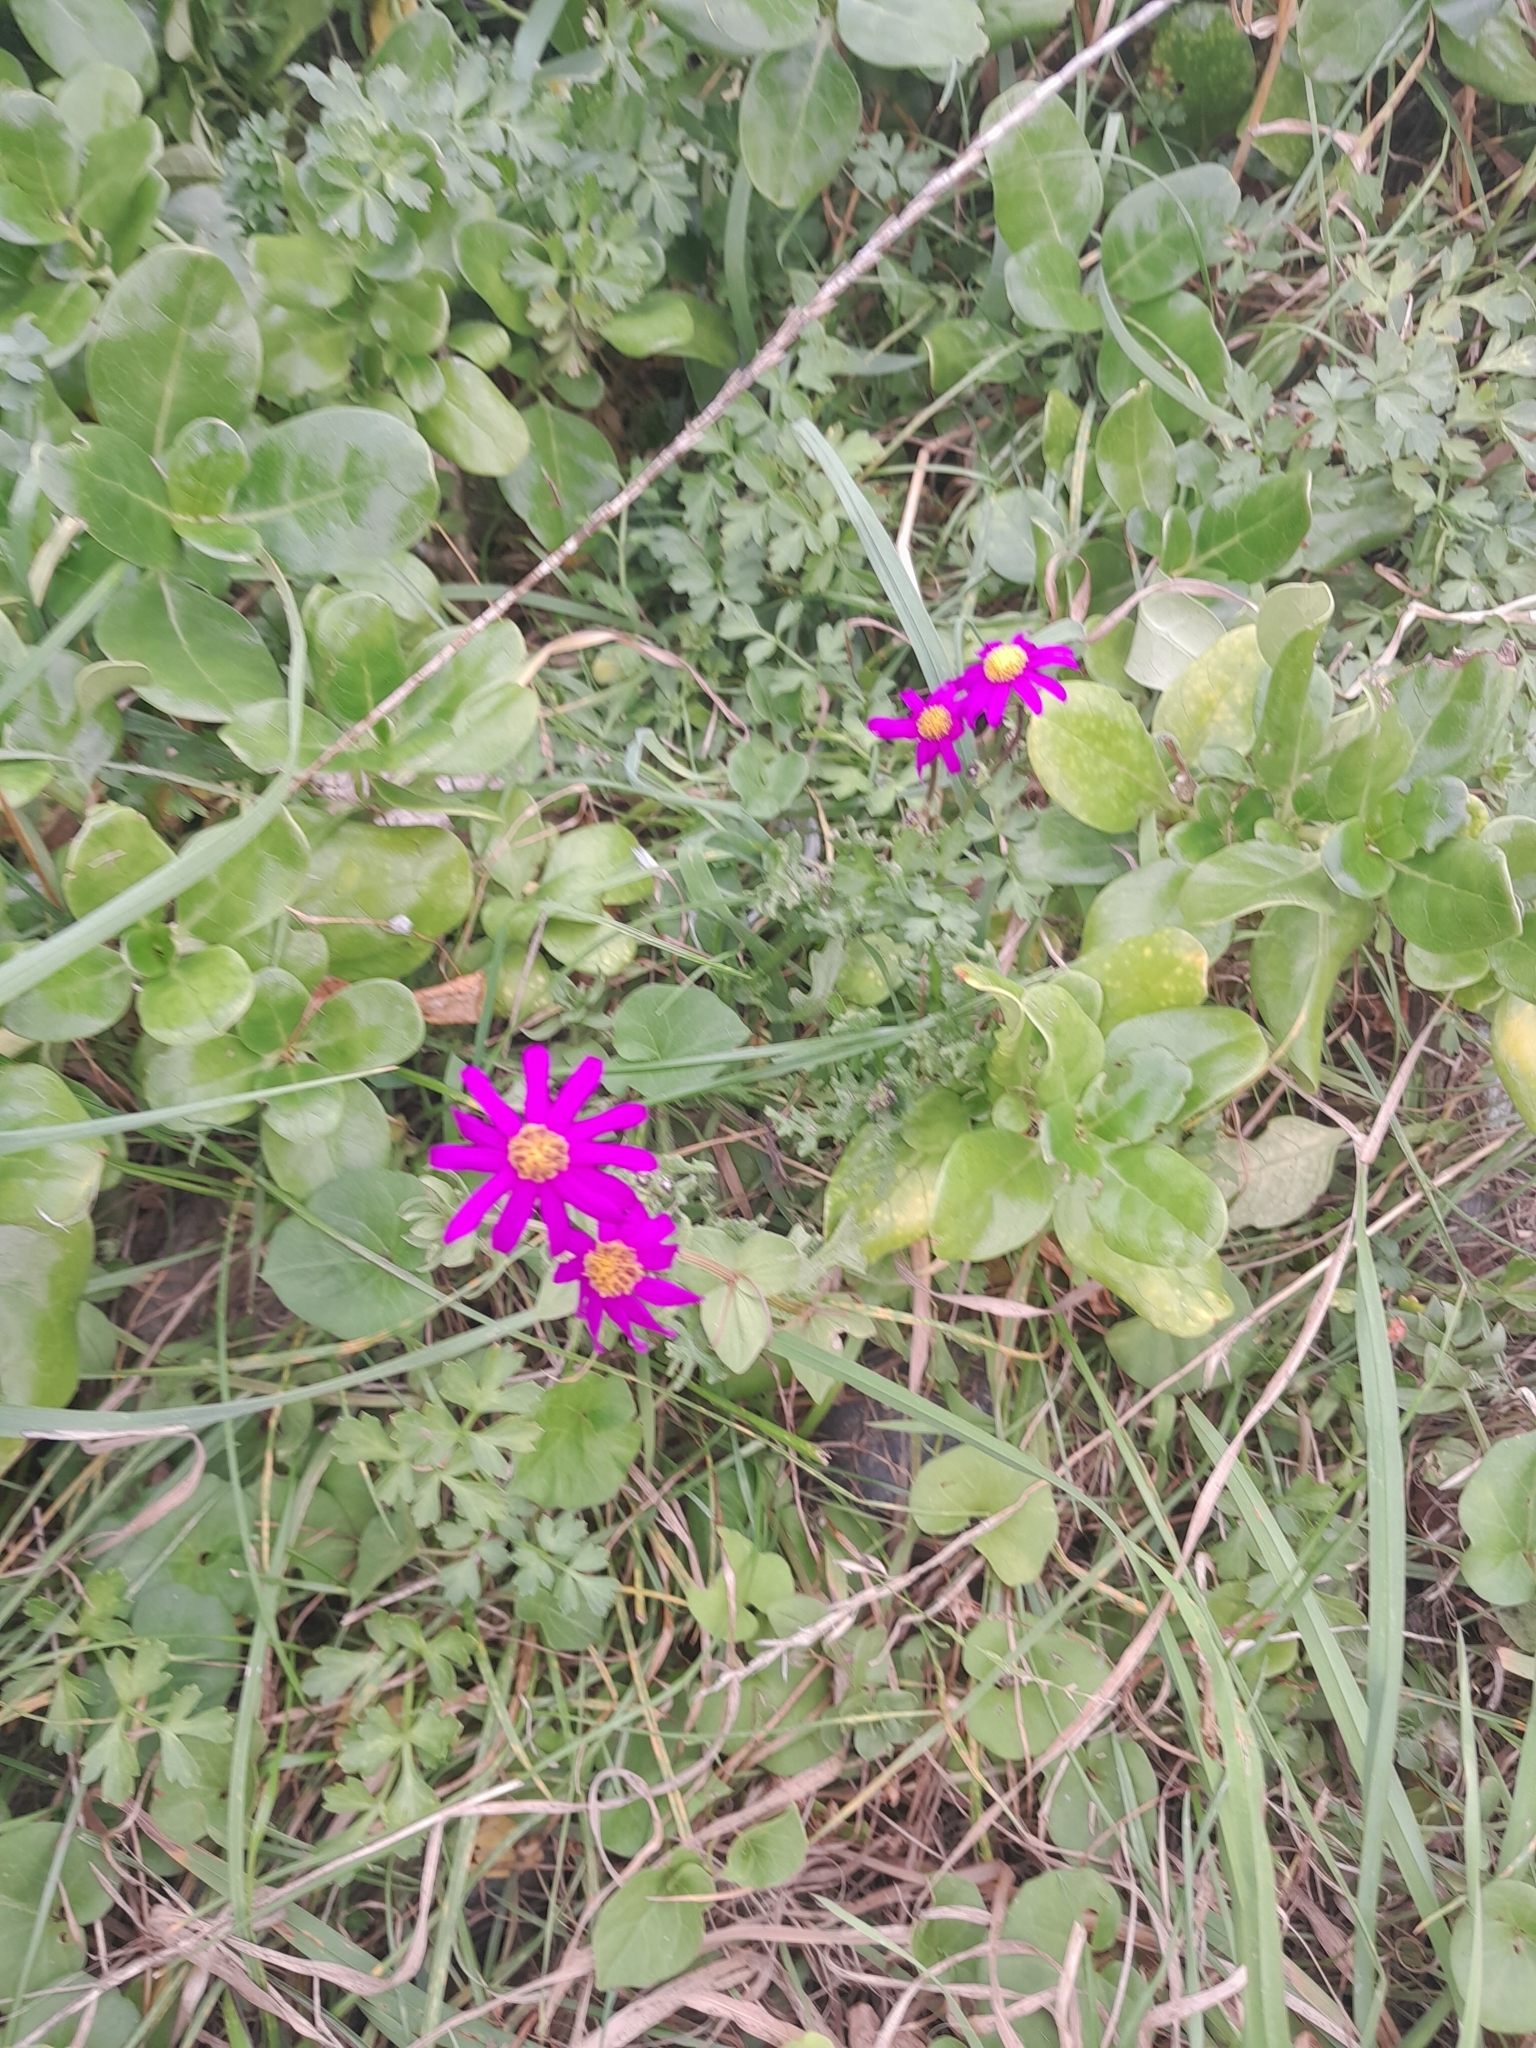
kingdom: Plantae
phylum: Tracheophyta
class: Magnoliopsida
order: Asterales
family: Asteraceae
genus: Senecio
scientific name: Senecio elegans
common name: Purple groundsel
